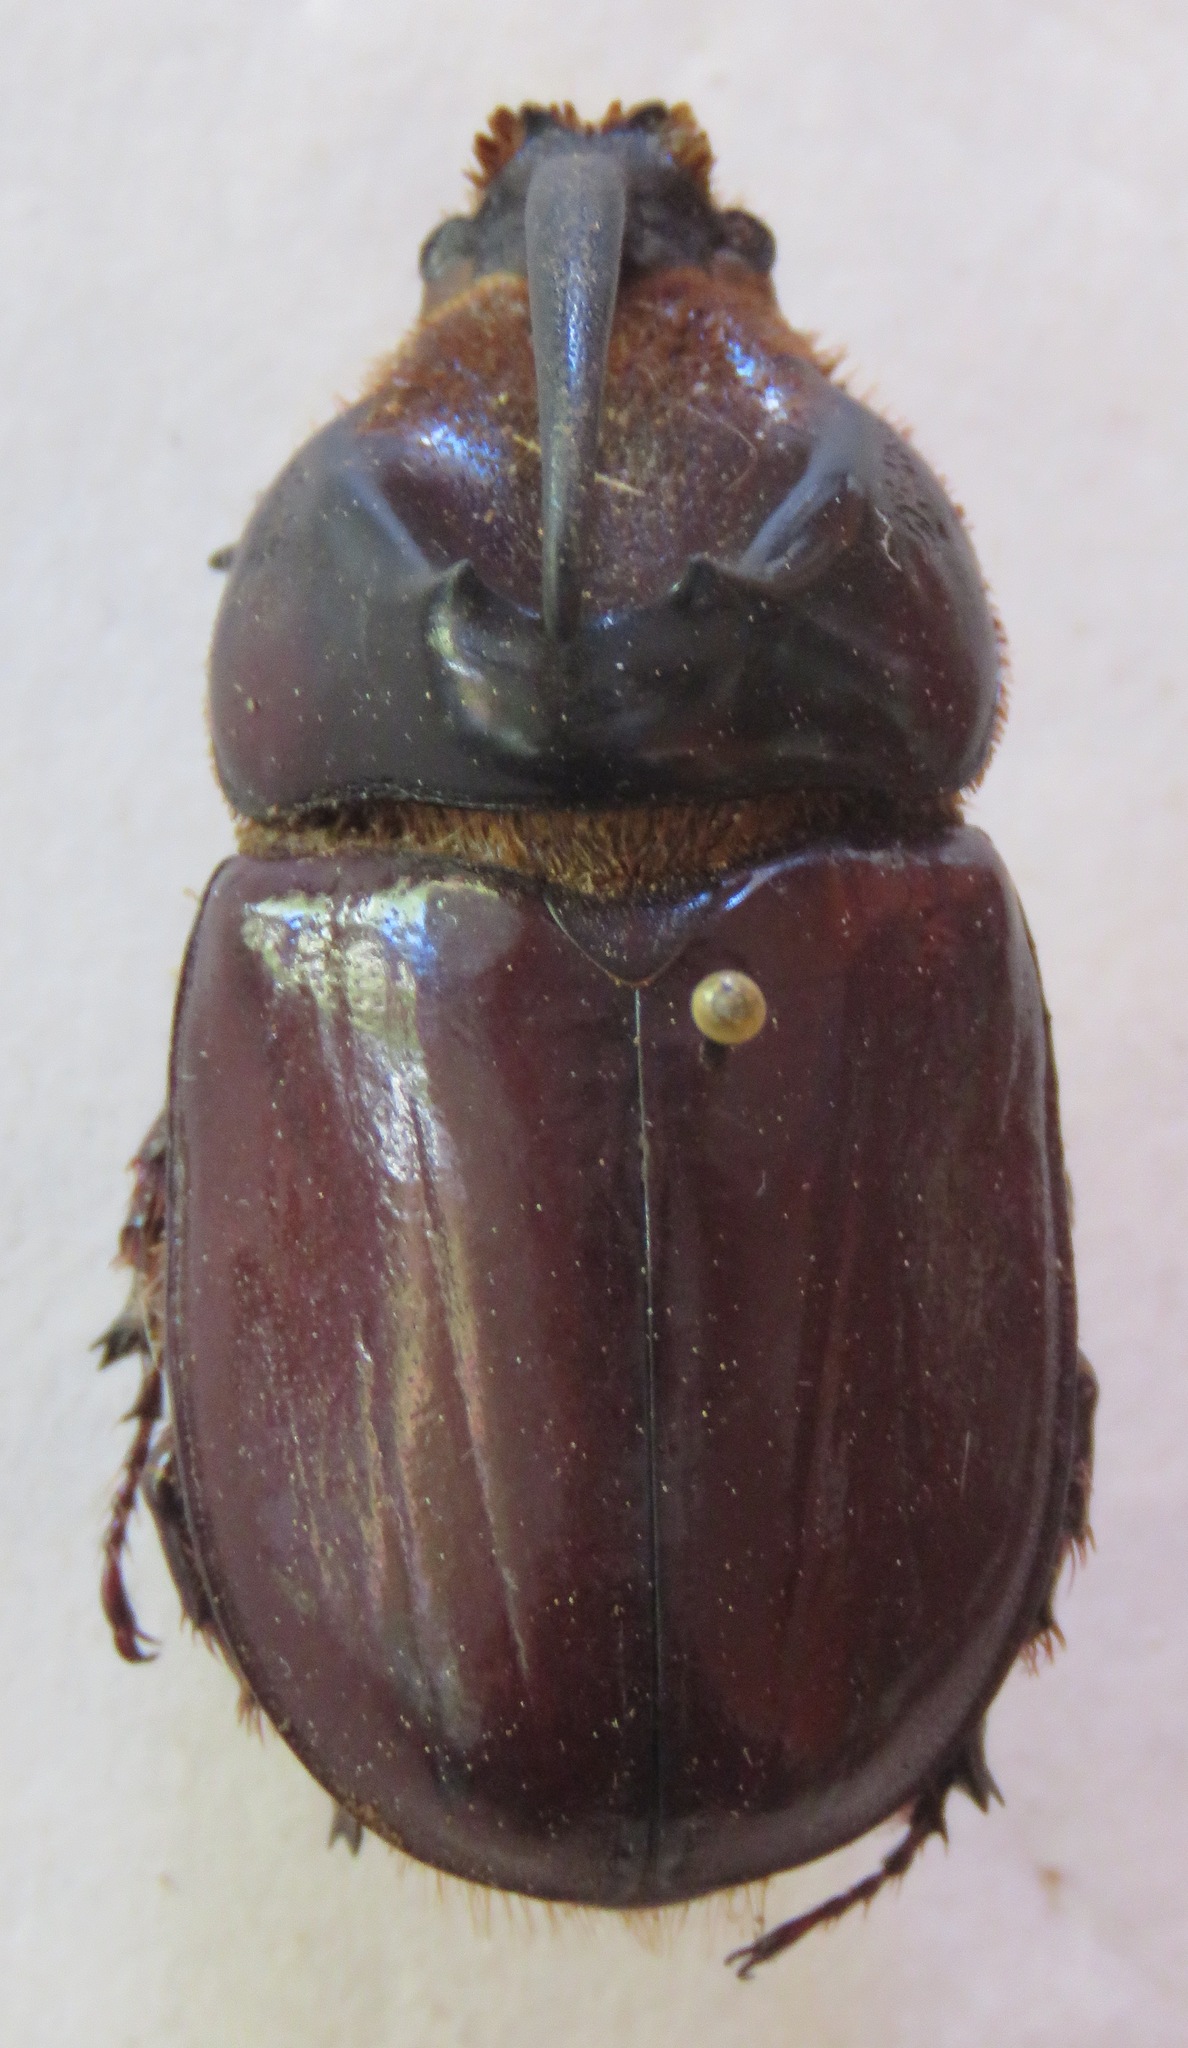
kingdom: Animalia
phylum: Arthropoda
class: Insecta
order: Coleoptera
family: Scarabaeidae
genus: Oryctes
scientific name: Oryctes boas
